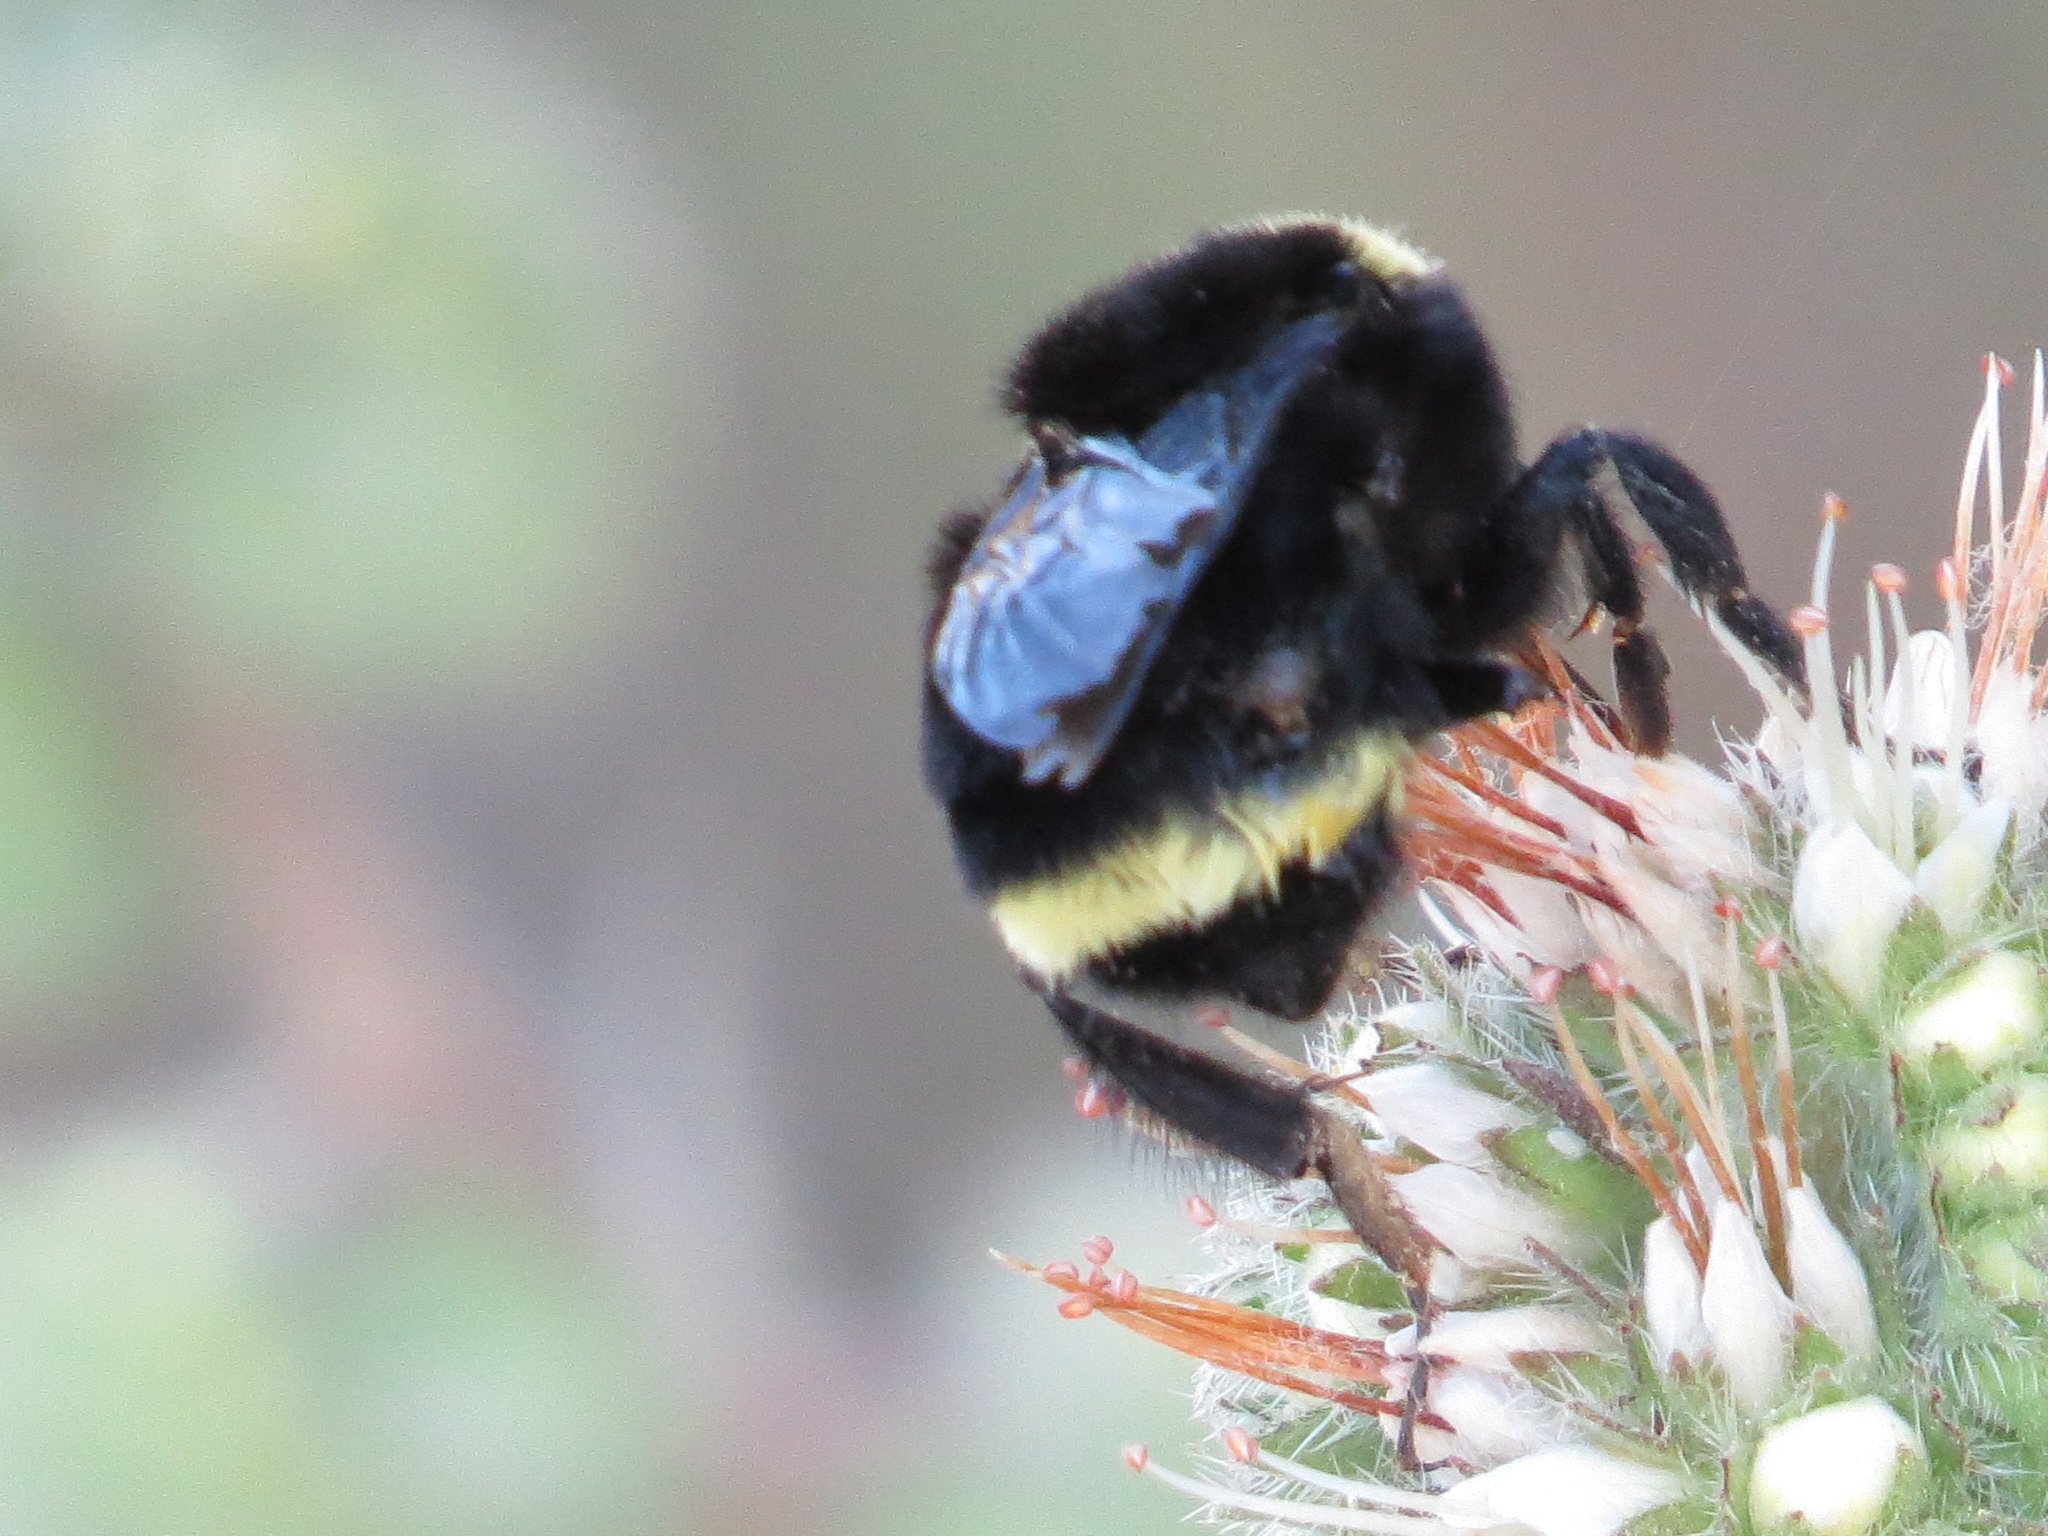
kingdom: Animalia
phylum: Arthropoda
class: Insecta
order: Hymenoptera
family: Apidae
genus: Bombus
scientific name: Bombus vosnesenskii
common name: Vosnesensky bumble bee
